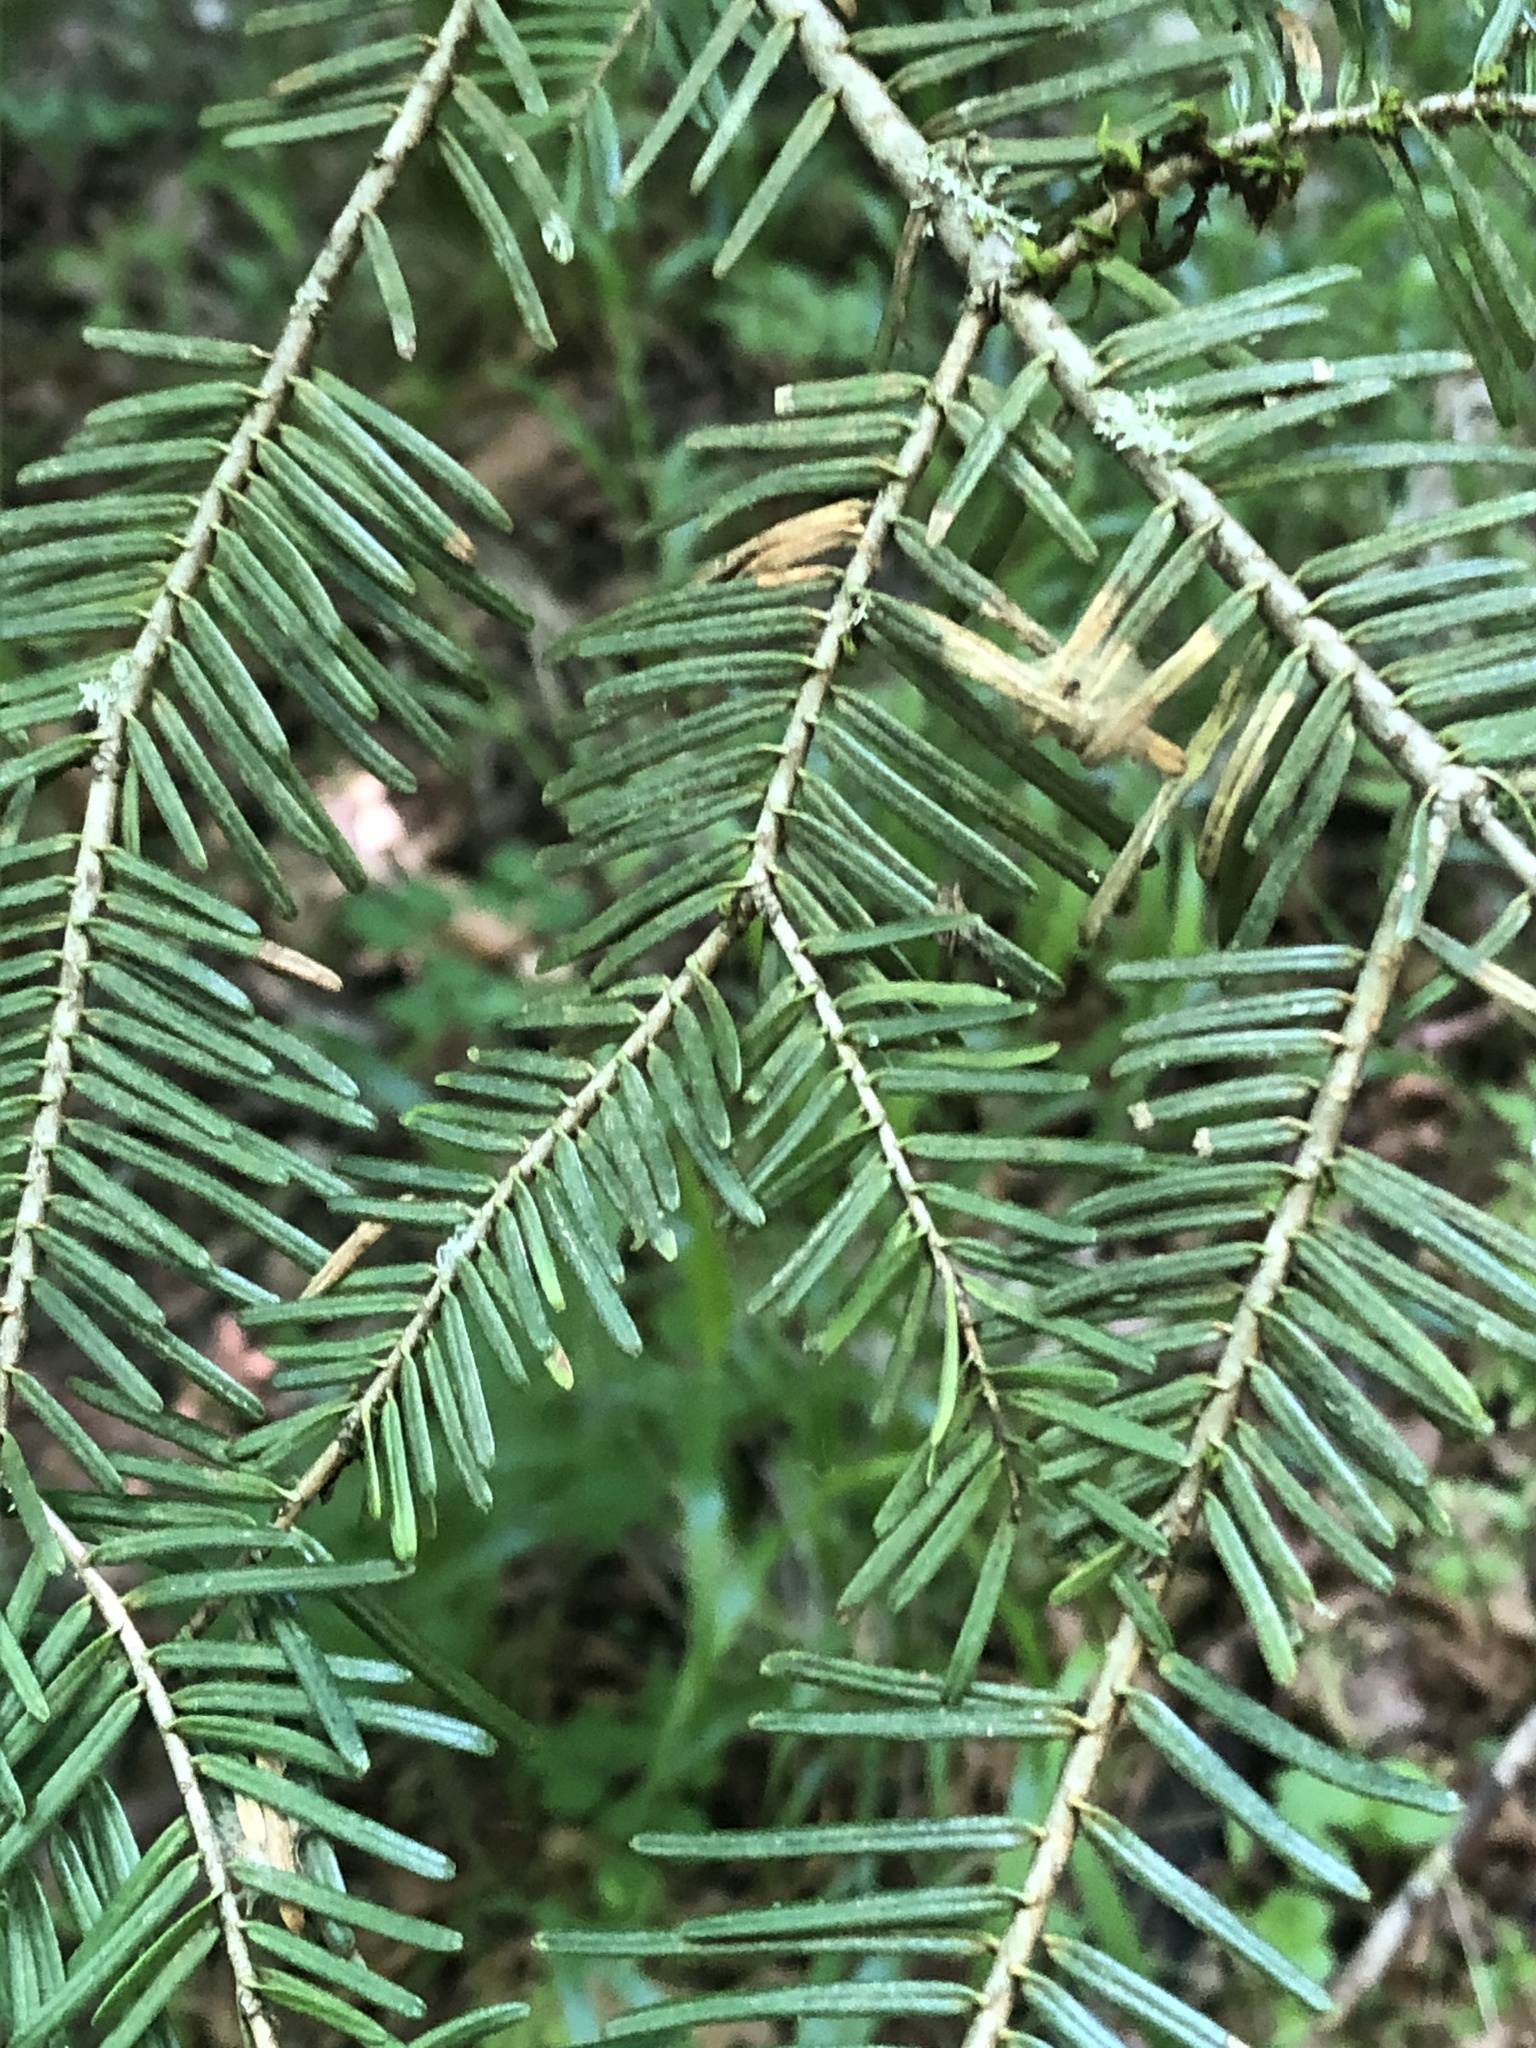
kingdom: Plantae
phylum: Tracheophyta
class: Pinopsida
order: Pinales
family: Pinaceae
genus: Abies
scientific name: Abies grandis
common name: Giant fir
